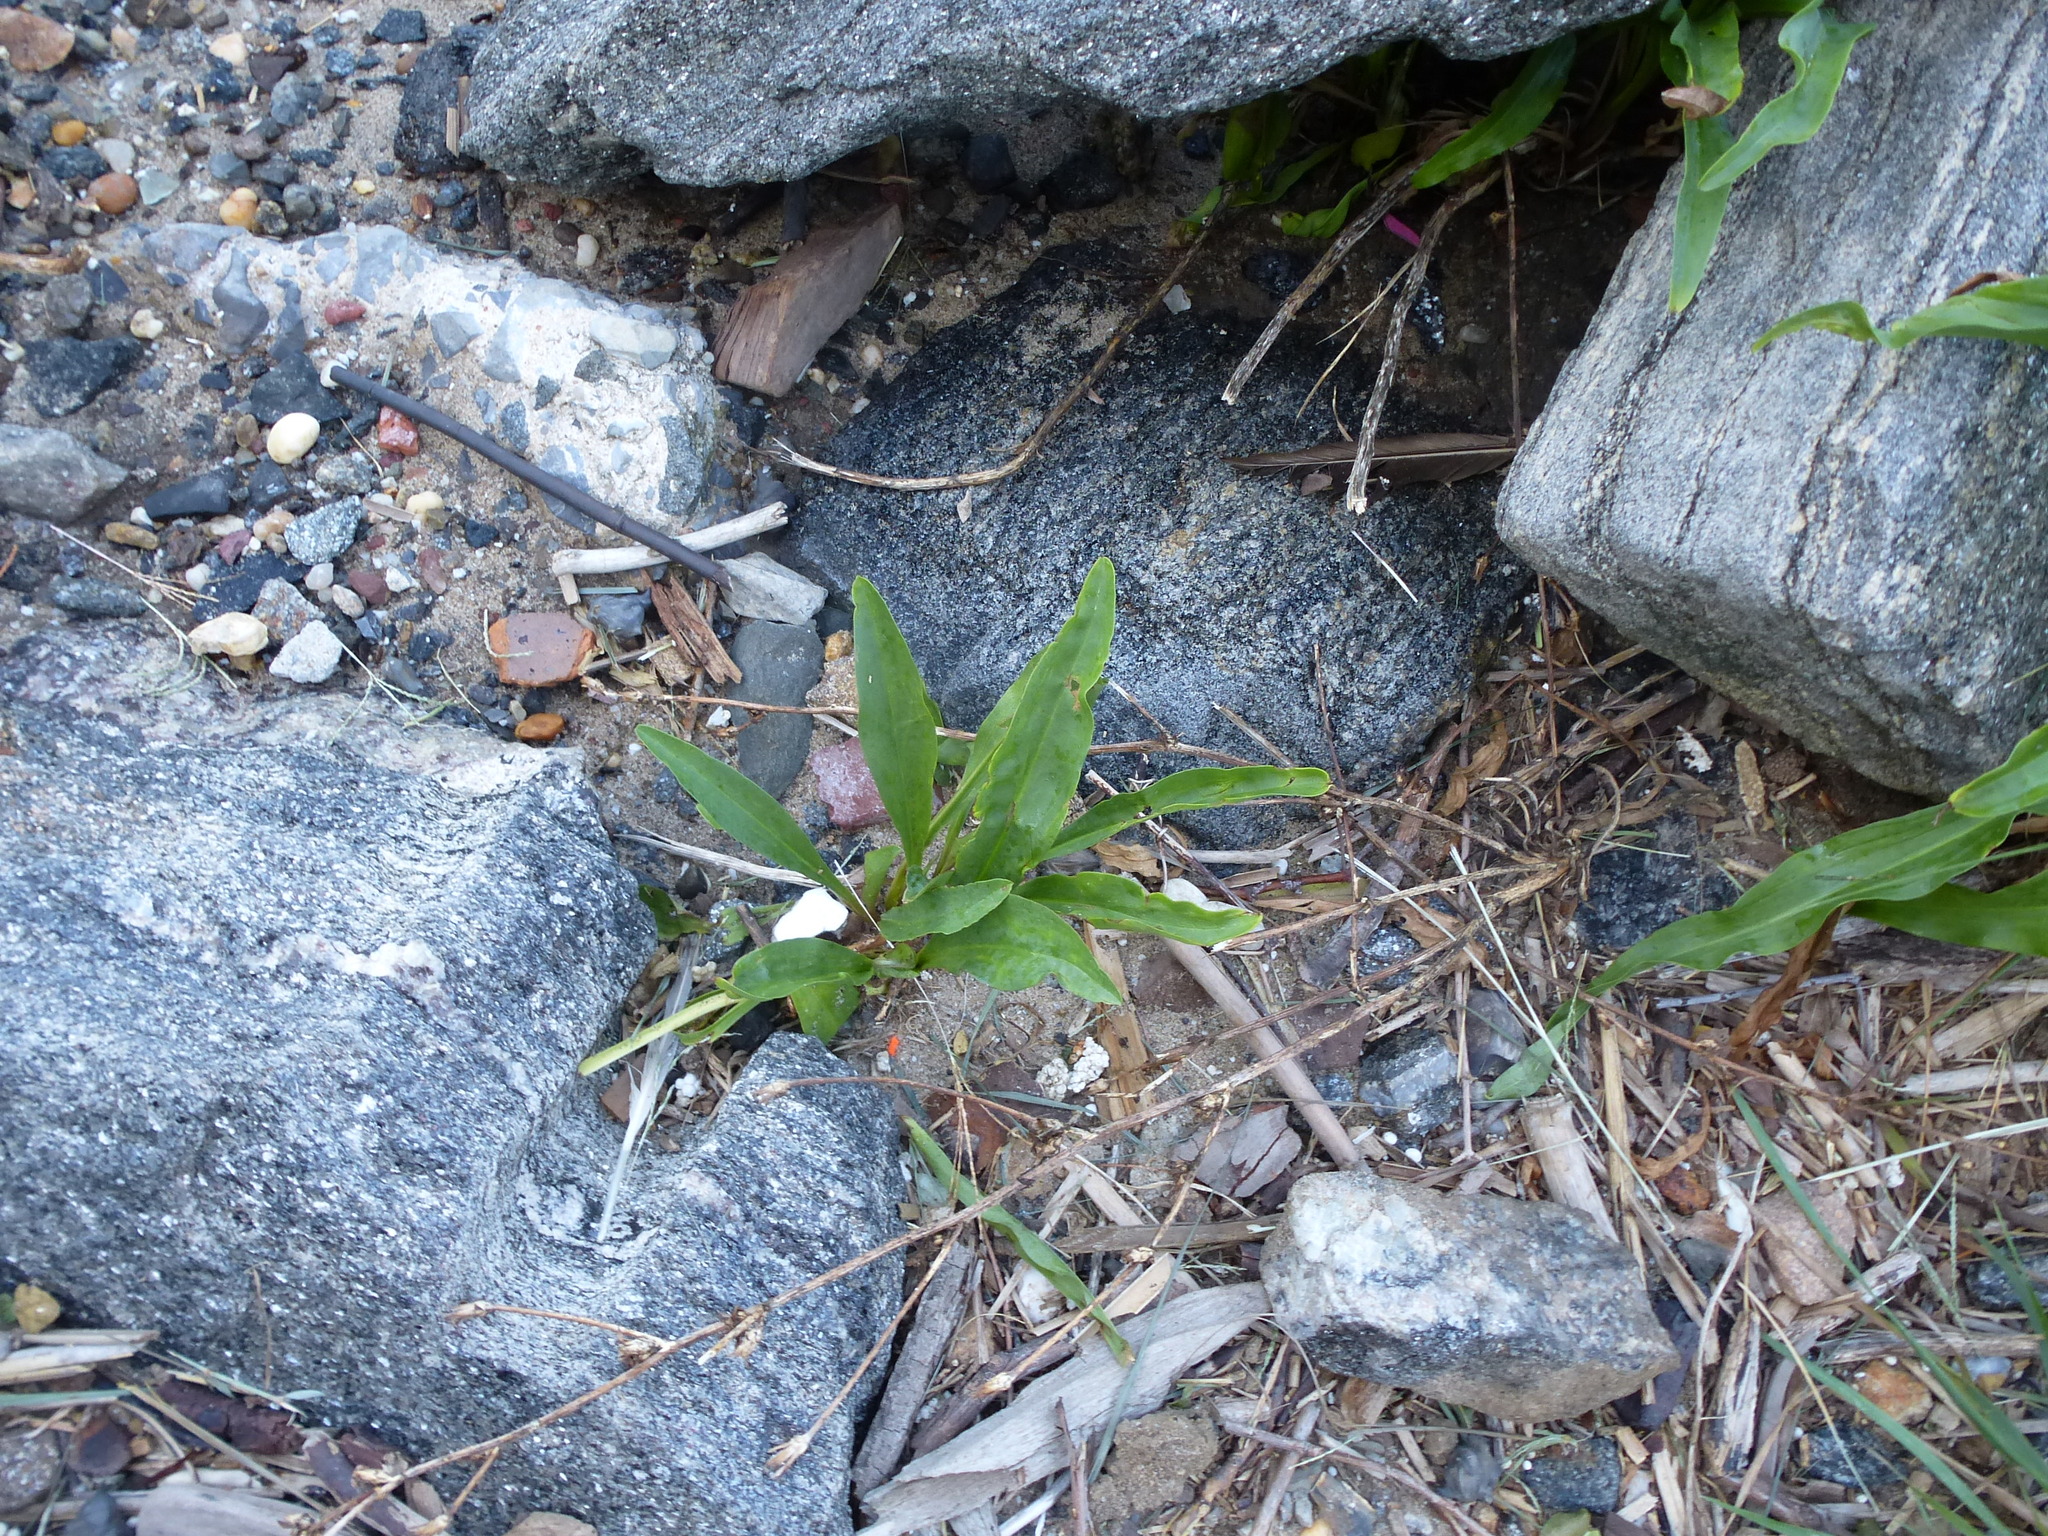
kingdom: Plantae
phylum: Tracheophyta
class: Magnoliopsida
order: Asterales
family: Asteraceae
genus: Solidago
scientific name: Solidago sempervirens
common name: Salt-marsh goldenrod
